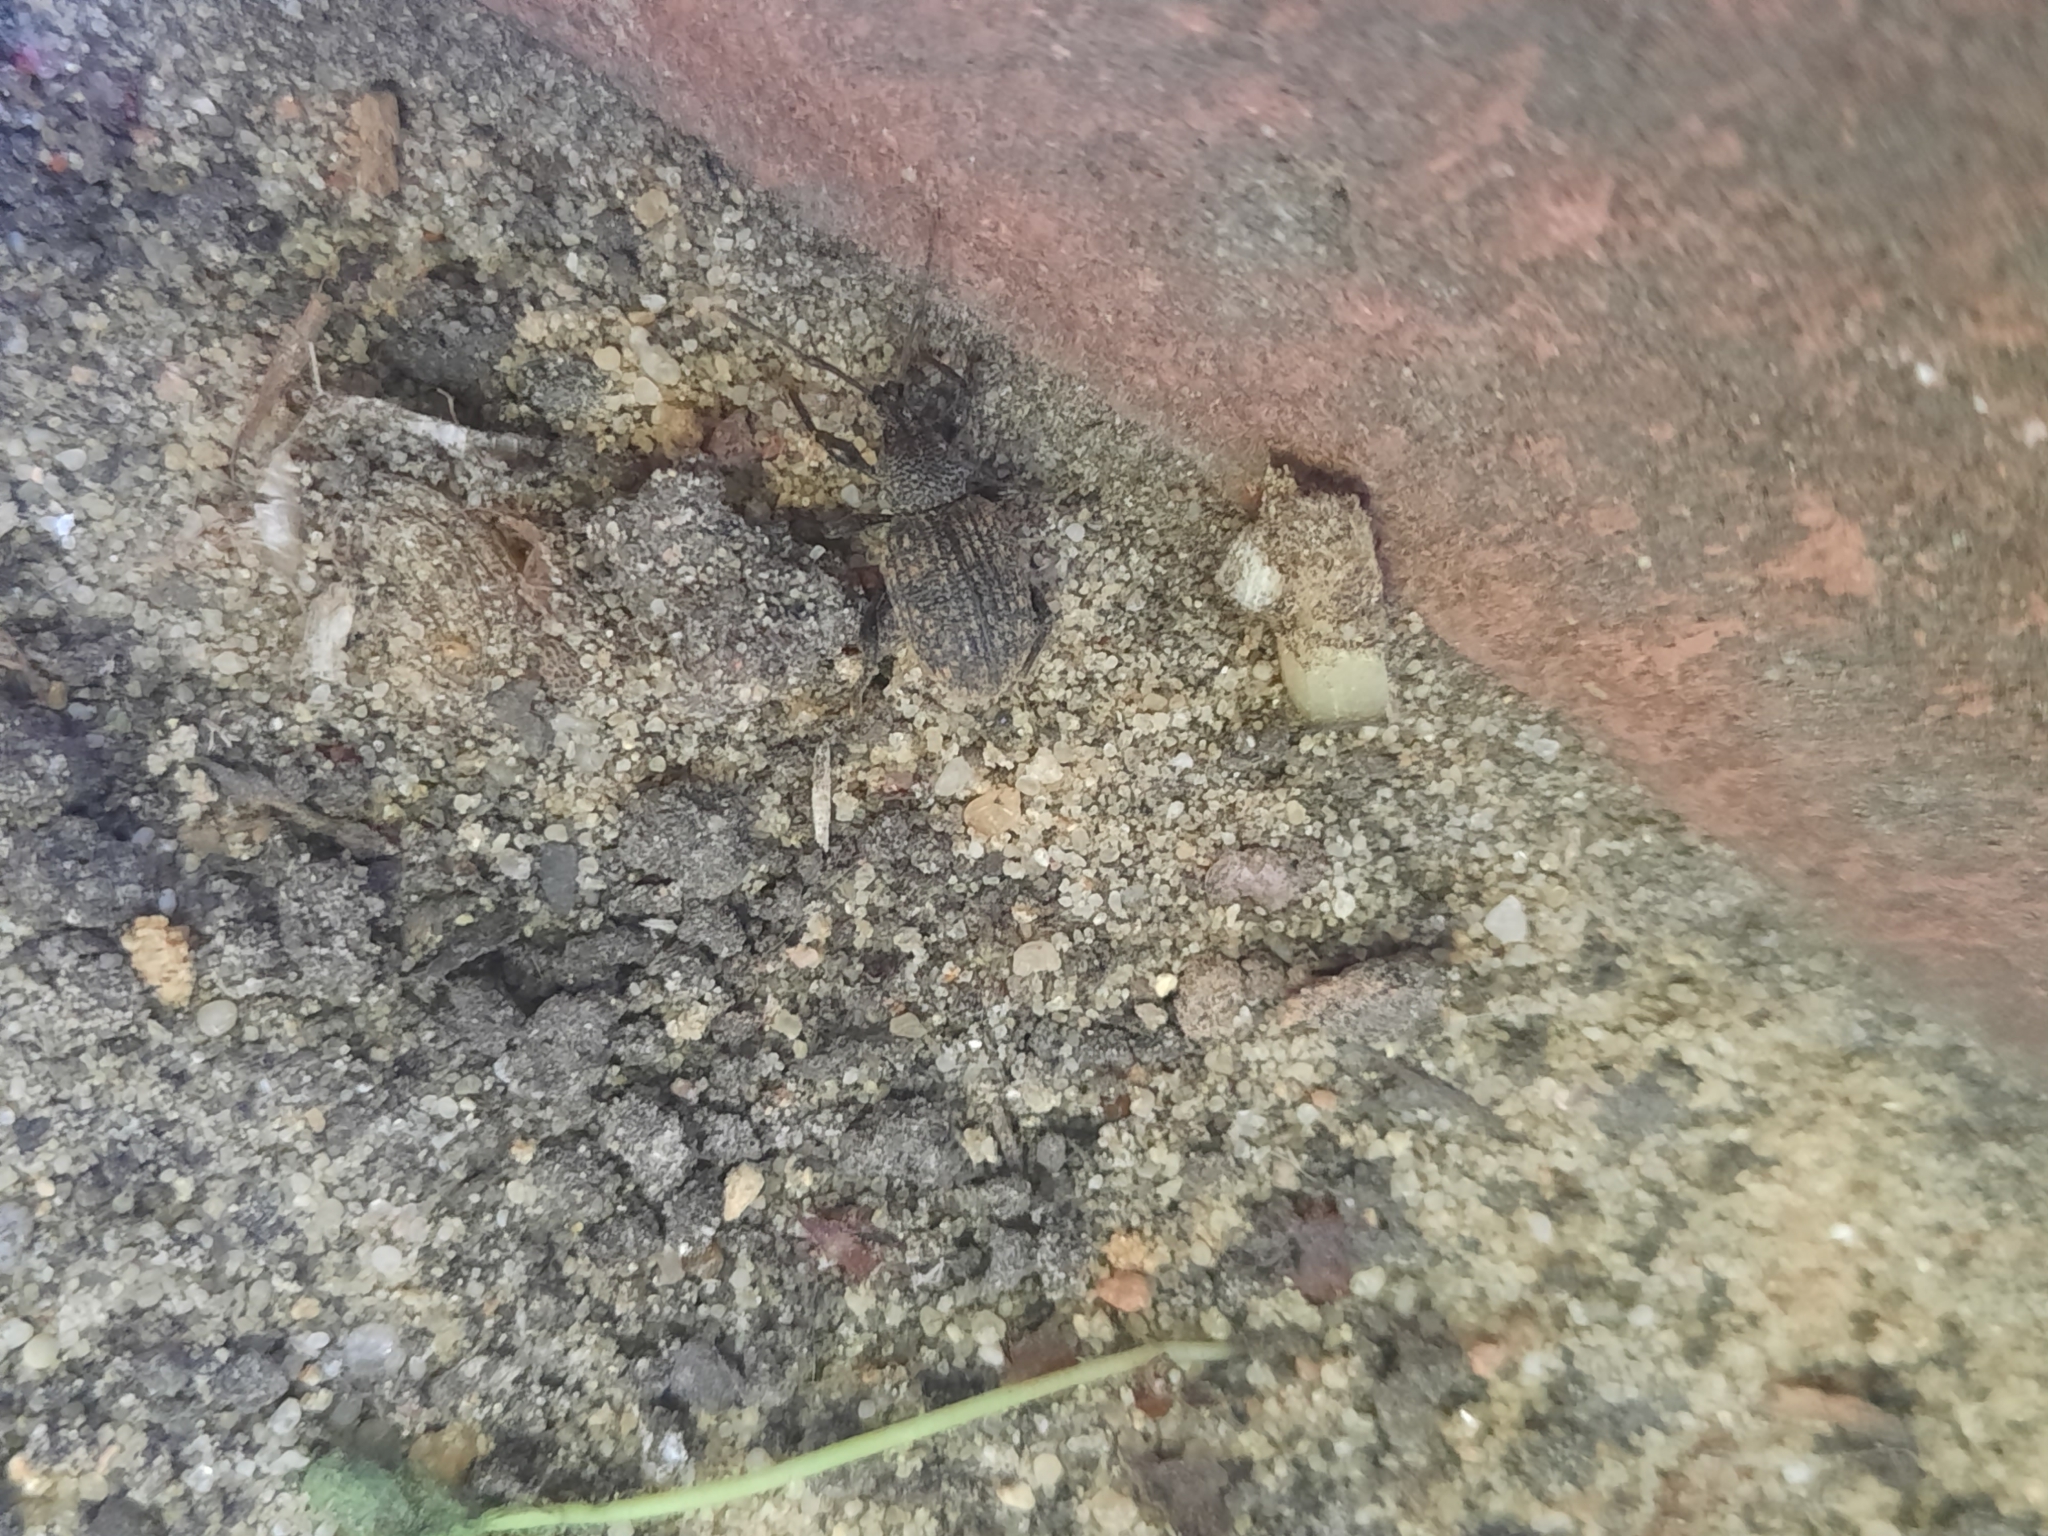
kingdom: Animalia
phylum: Arthropoda
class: Insecta
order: Coleoptera
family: Curculionidae
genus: Otiorhynchus
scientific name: Otiorhynchus sulcatus
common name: Black vine weevil
